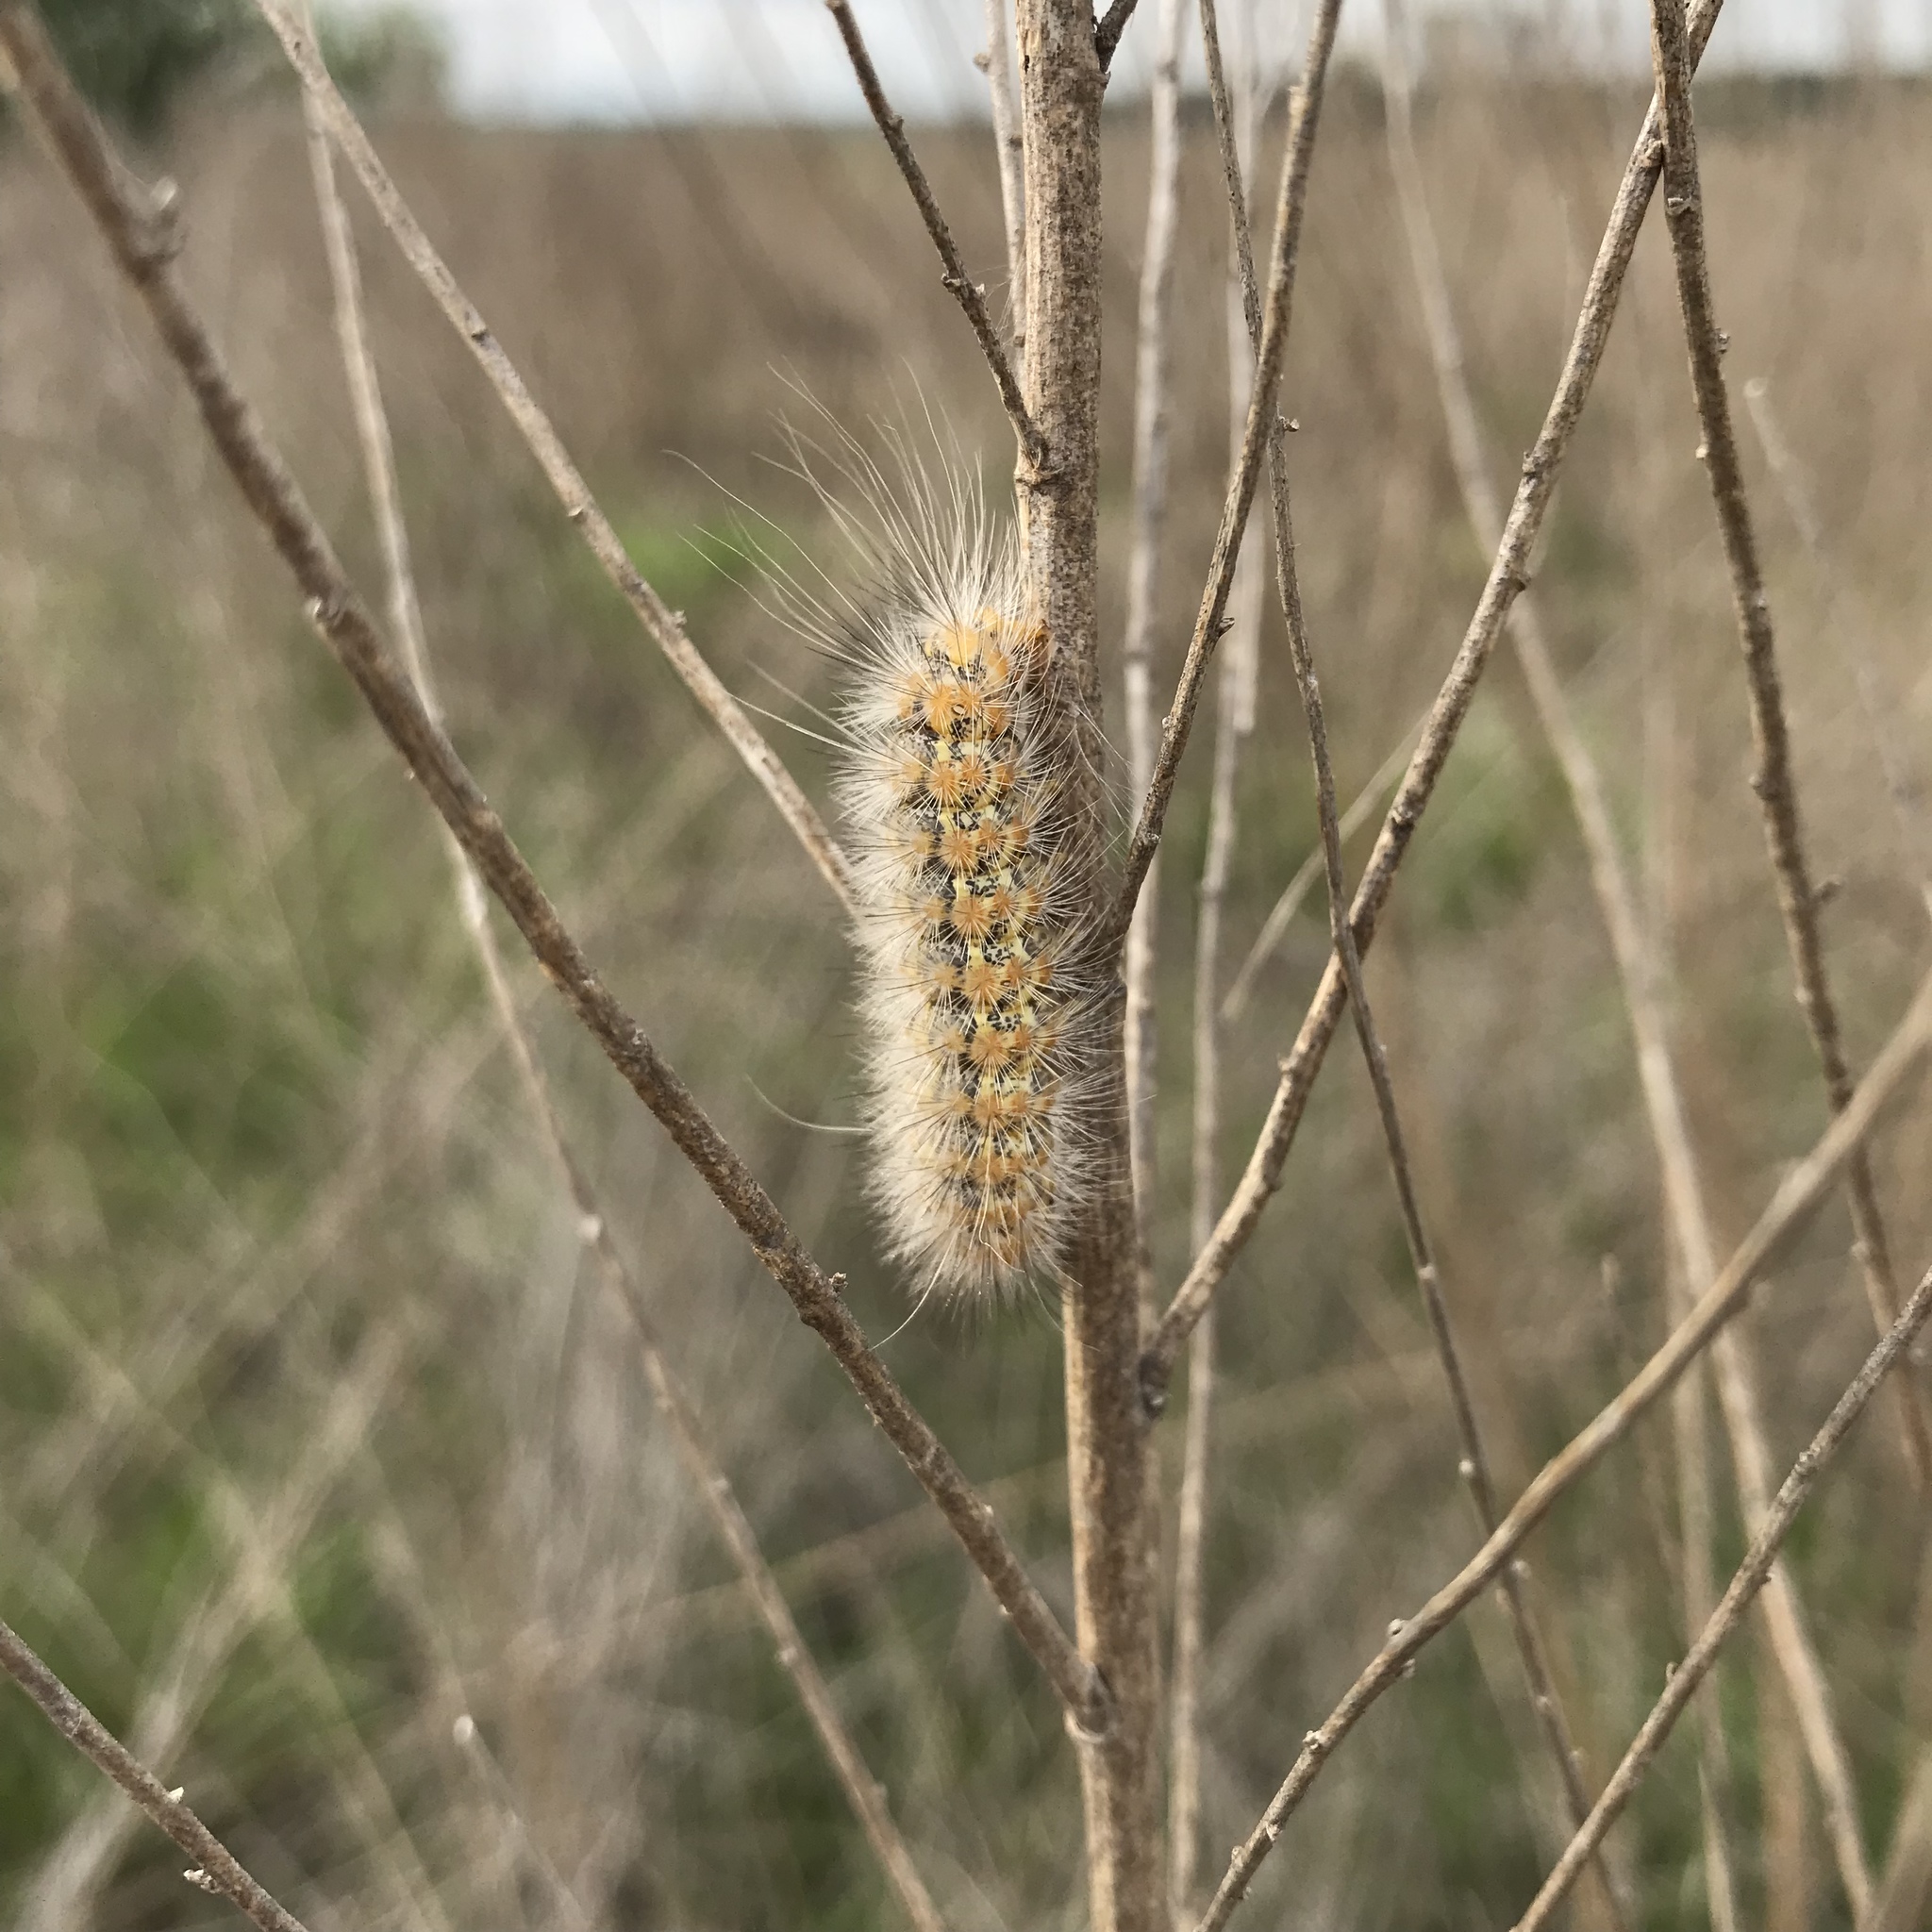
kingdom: Animalia
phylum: Arthropoda
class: Insecta
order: Lepidoptera
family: Erebidae
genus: Estigmene
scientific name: Estigmene acrea
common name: Salt marsh moth
